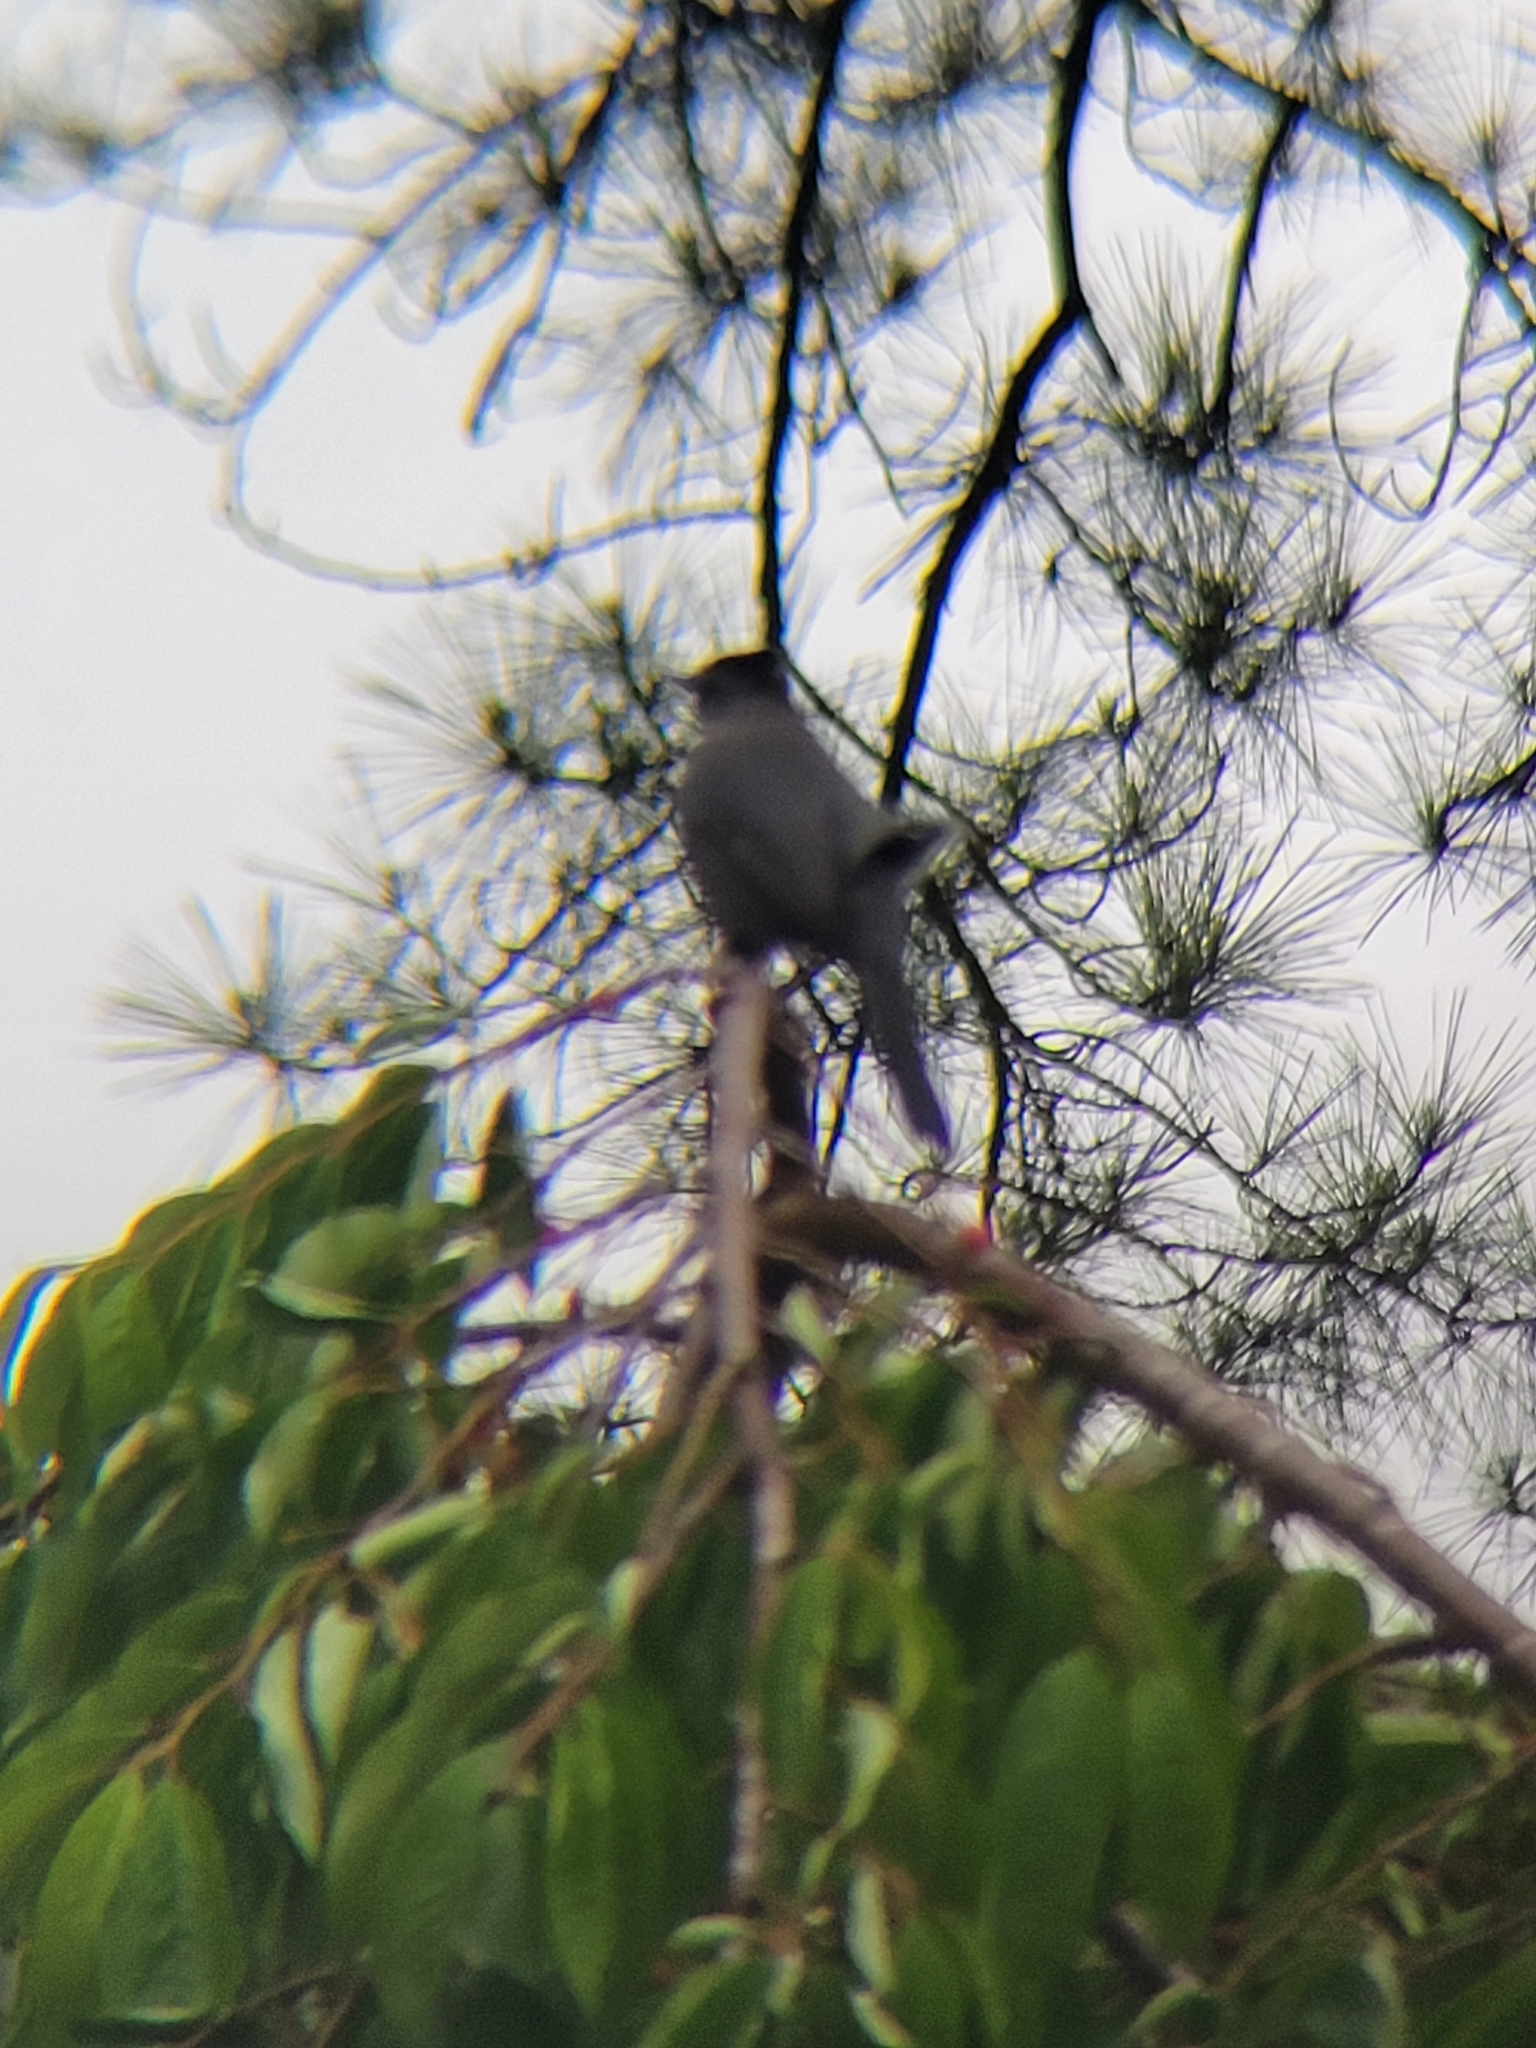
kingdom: Animalia
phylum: Chordata
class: Aves
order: Passeriformes
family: Mimidae
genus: Dumetella
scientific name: Dumetella carolinensis
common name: Gray catbird
